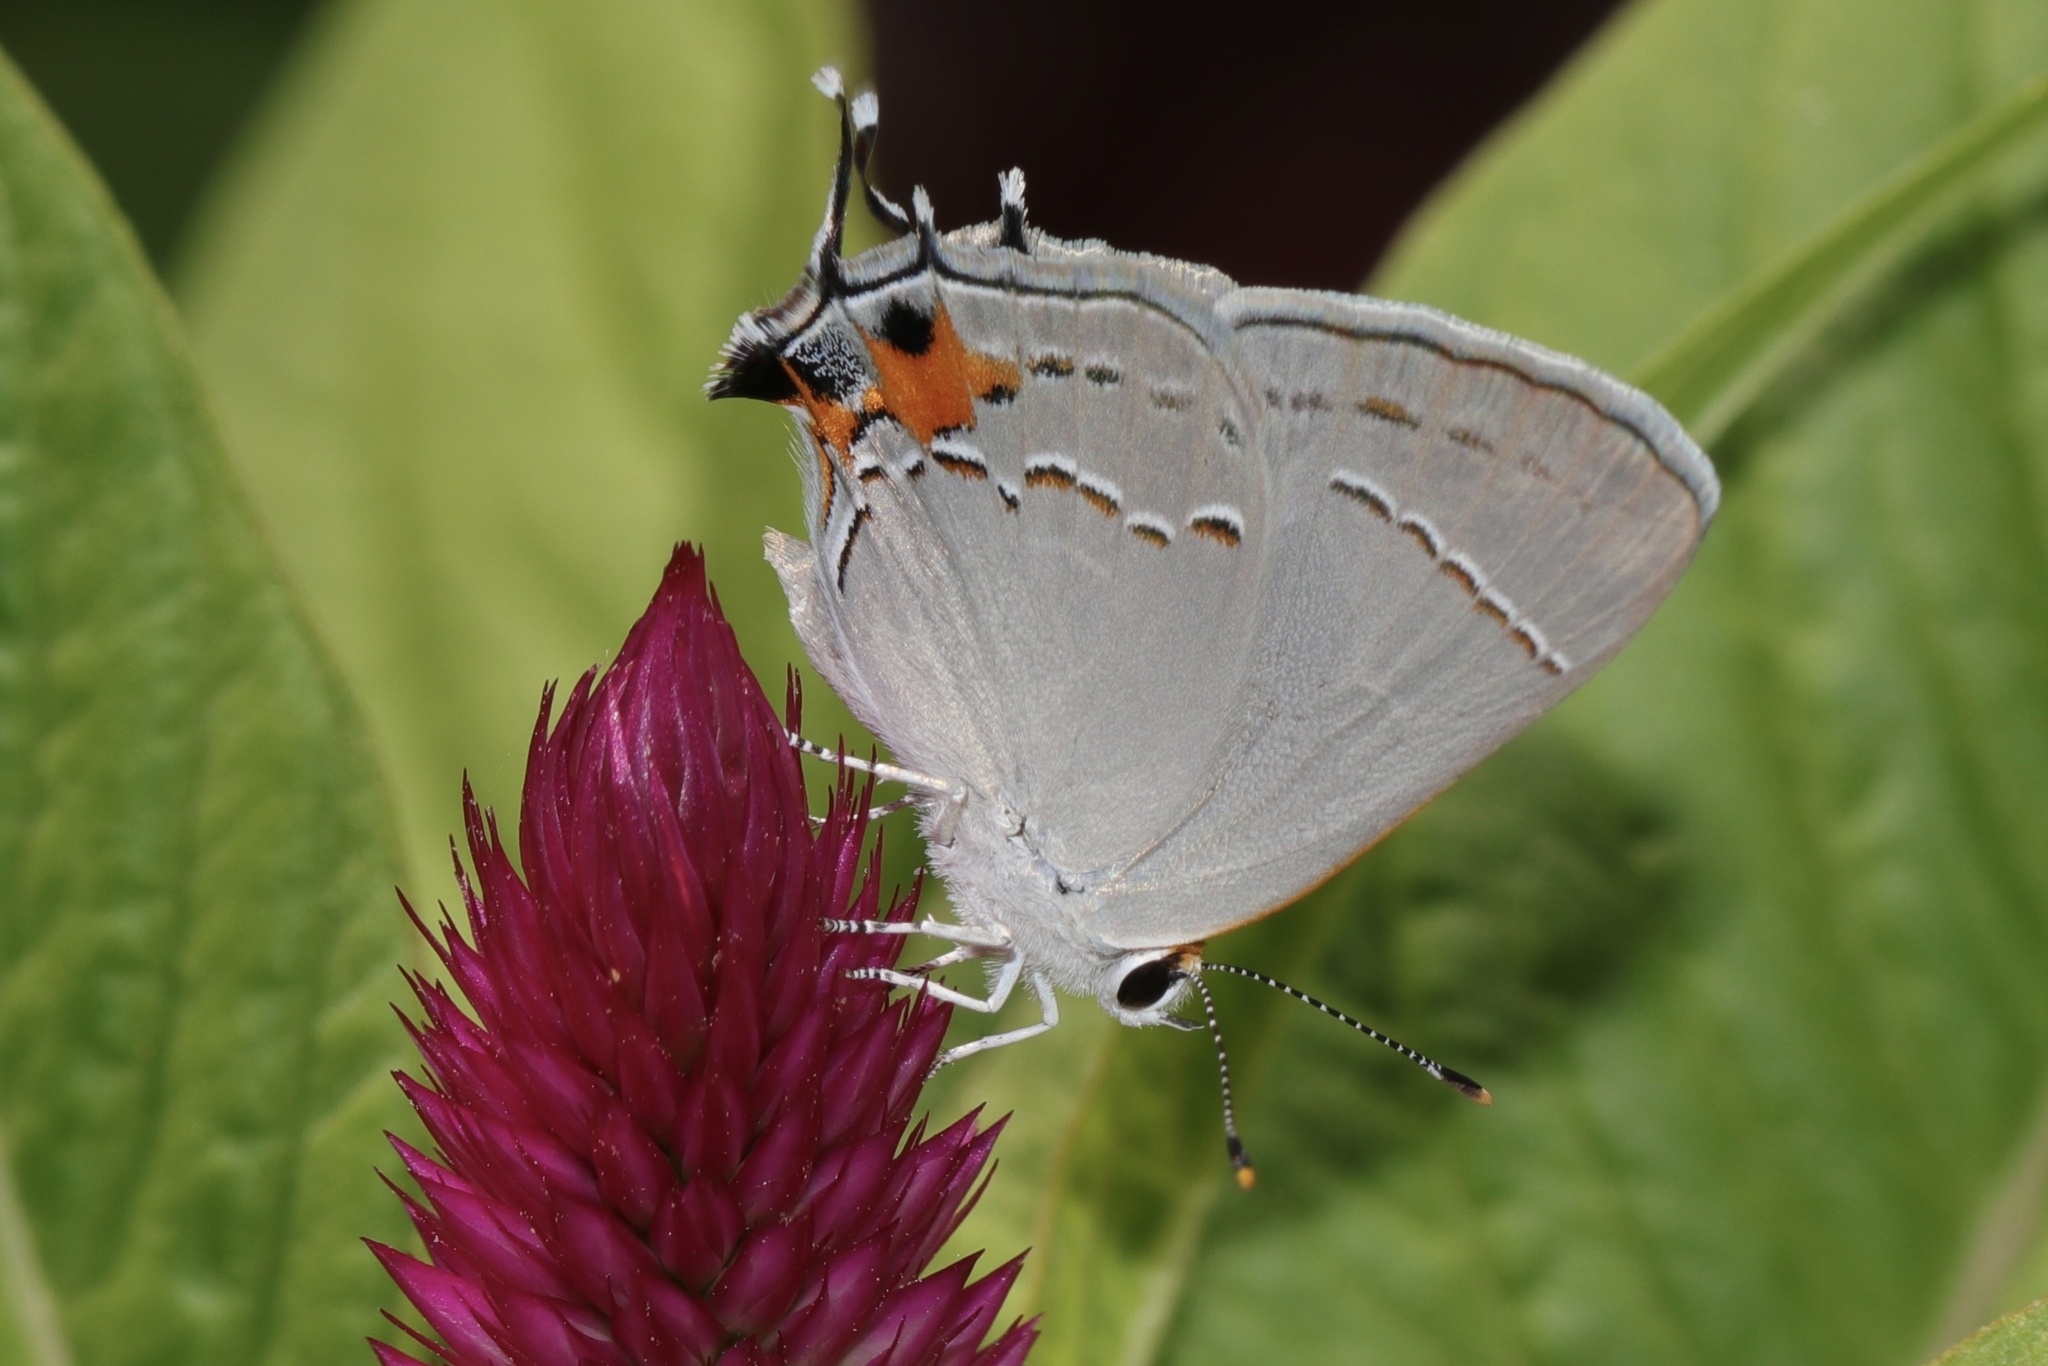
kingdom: Animalia
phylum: Arthropoda
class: Insecta
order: Lepidoptera
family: Lycaenidae
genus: Strymon
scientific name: Strymon melinus
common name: Gray hairstreak
